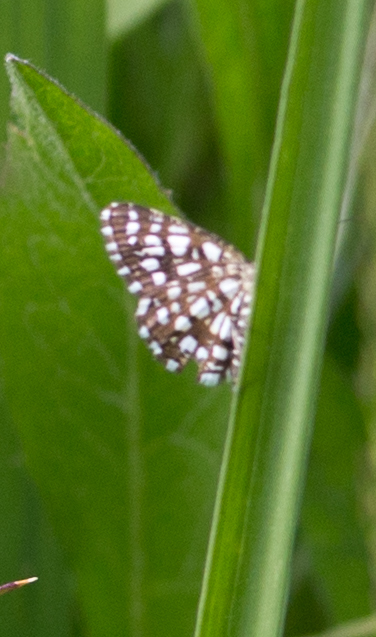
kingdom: Animalia
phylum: Arthropoda
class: Insecta
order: Lepidoptera
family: Geometridae
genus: Chiasmia
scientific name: Chiasmia clathrata
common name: Latticed heath
